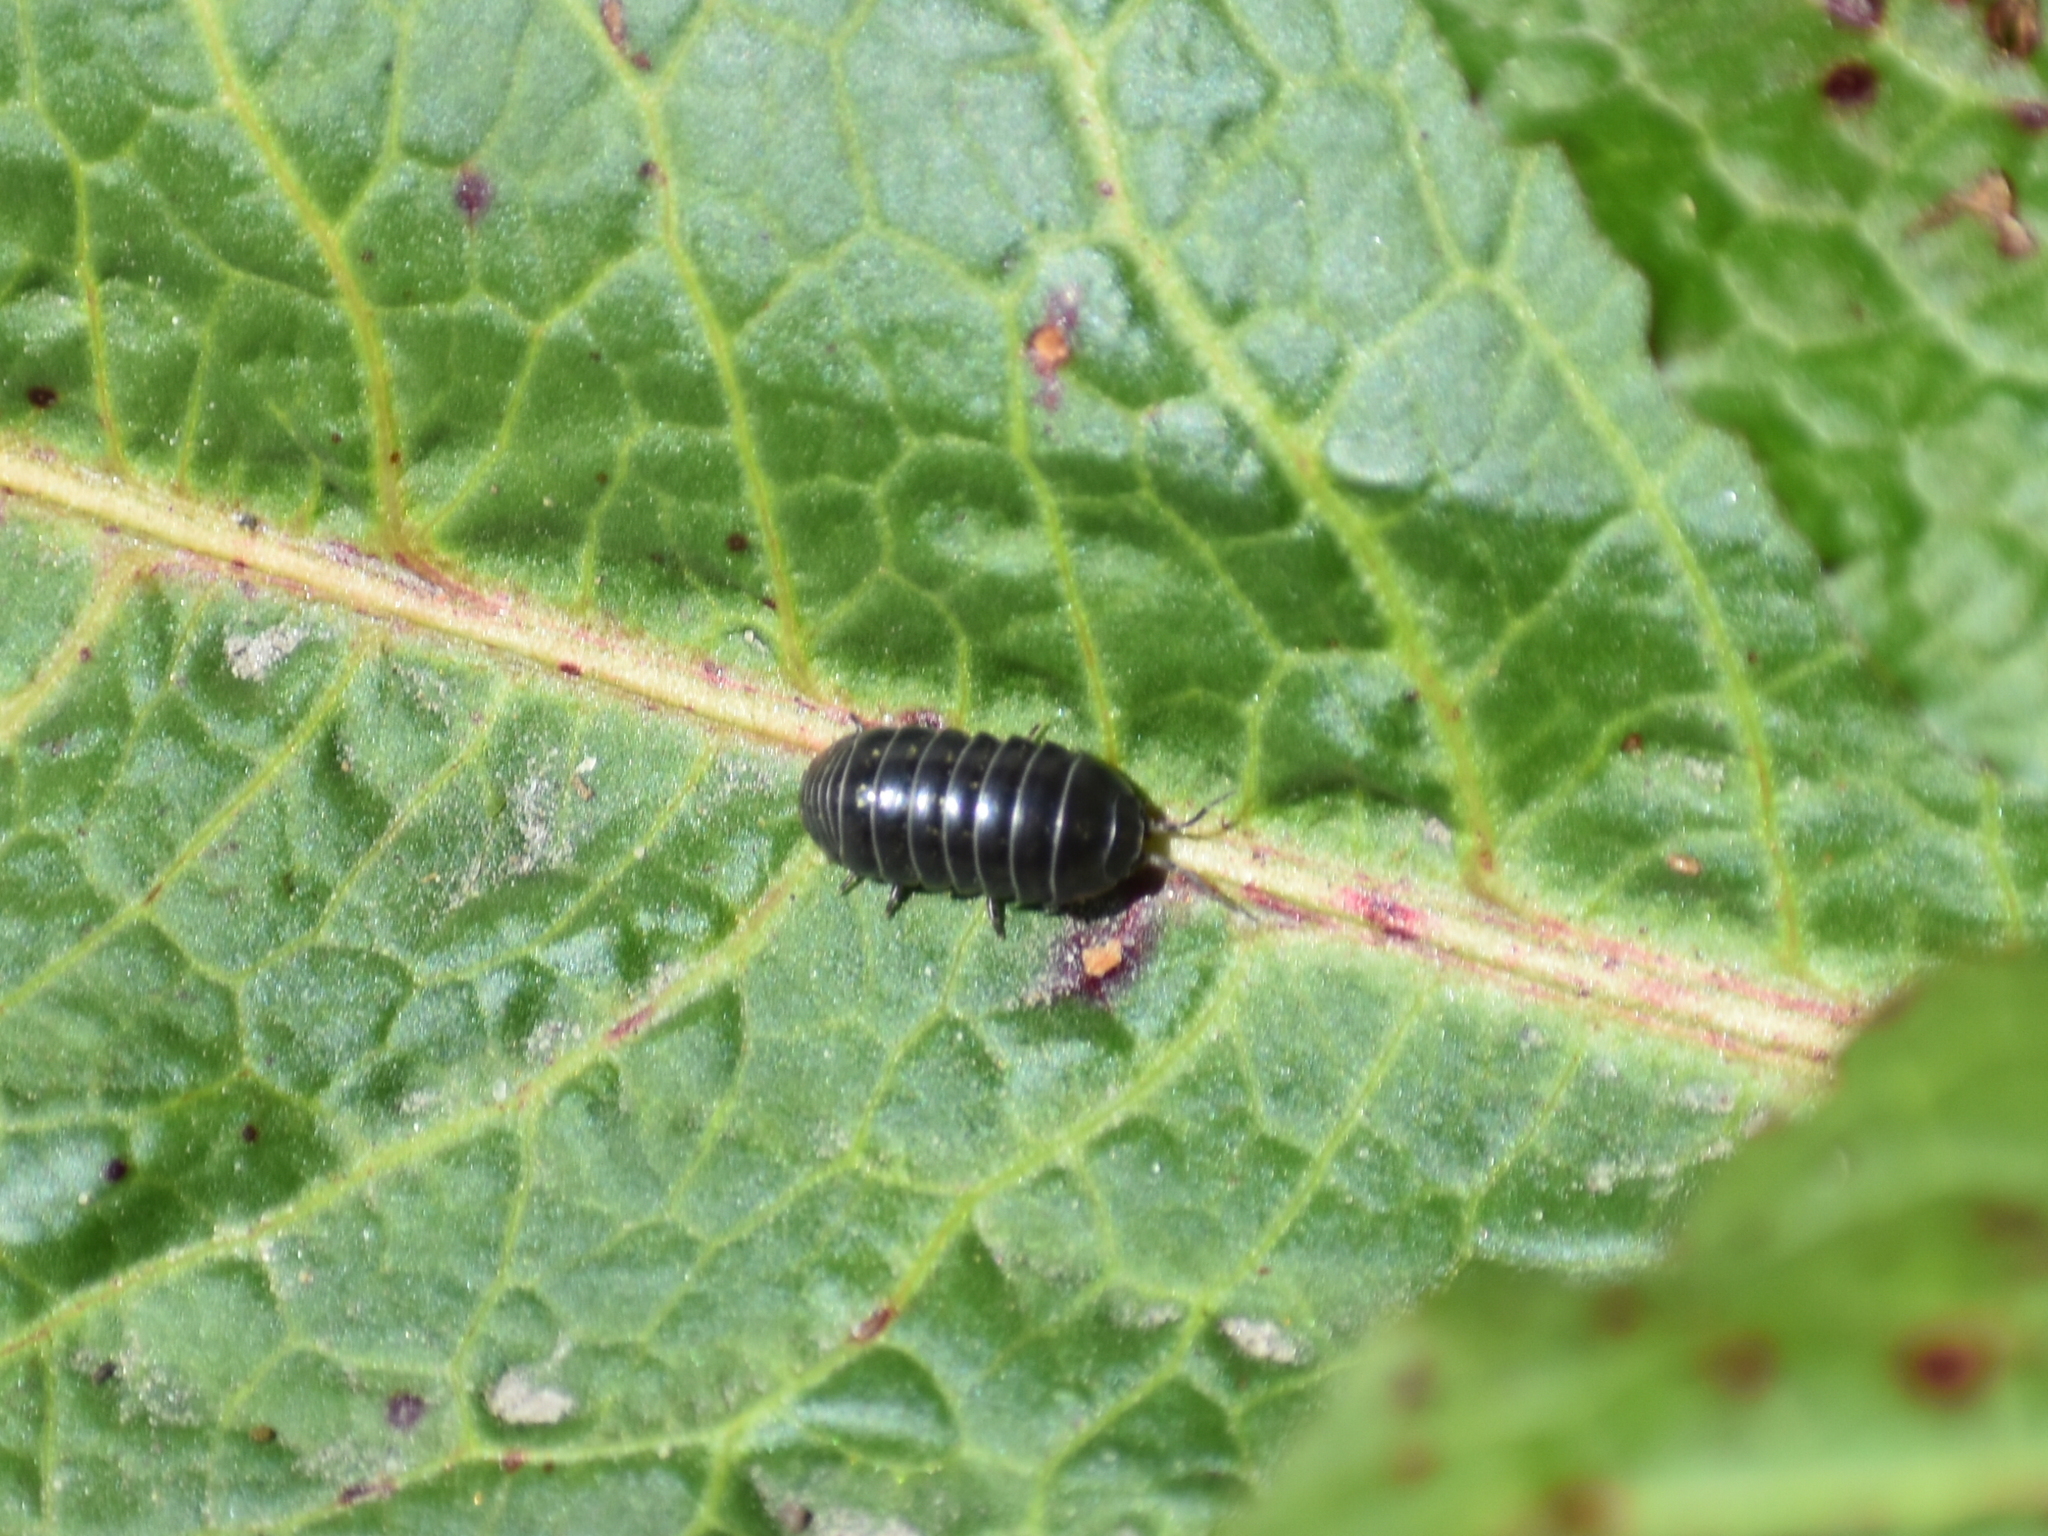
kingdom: Animalia
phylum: Arthropoda
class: Malacostraca
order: Isopoda
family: Armadillidiidae
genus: Armadillidium
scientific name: Armadillidium vulgare
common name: Common pill woodlouse
